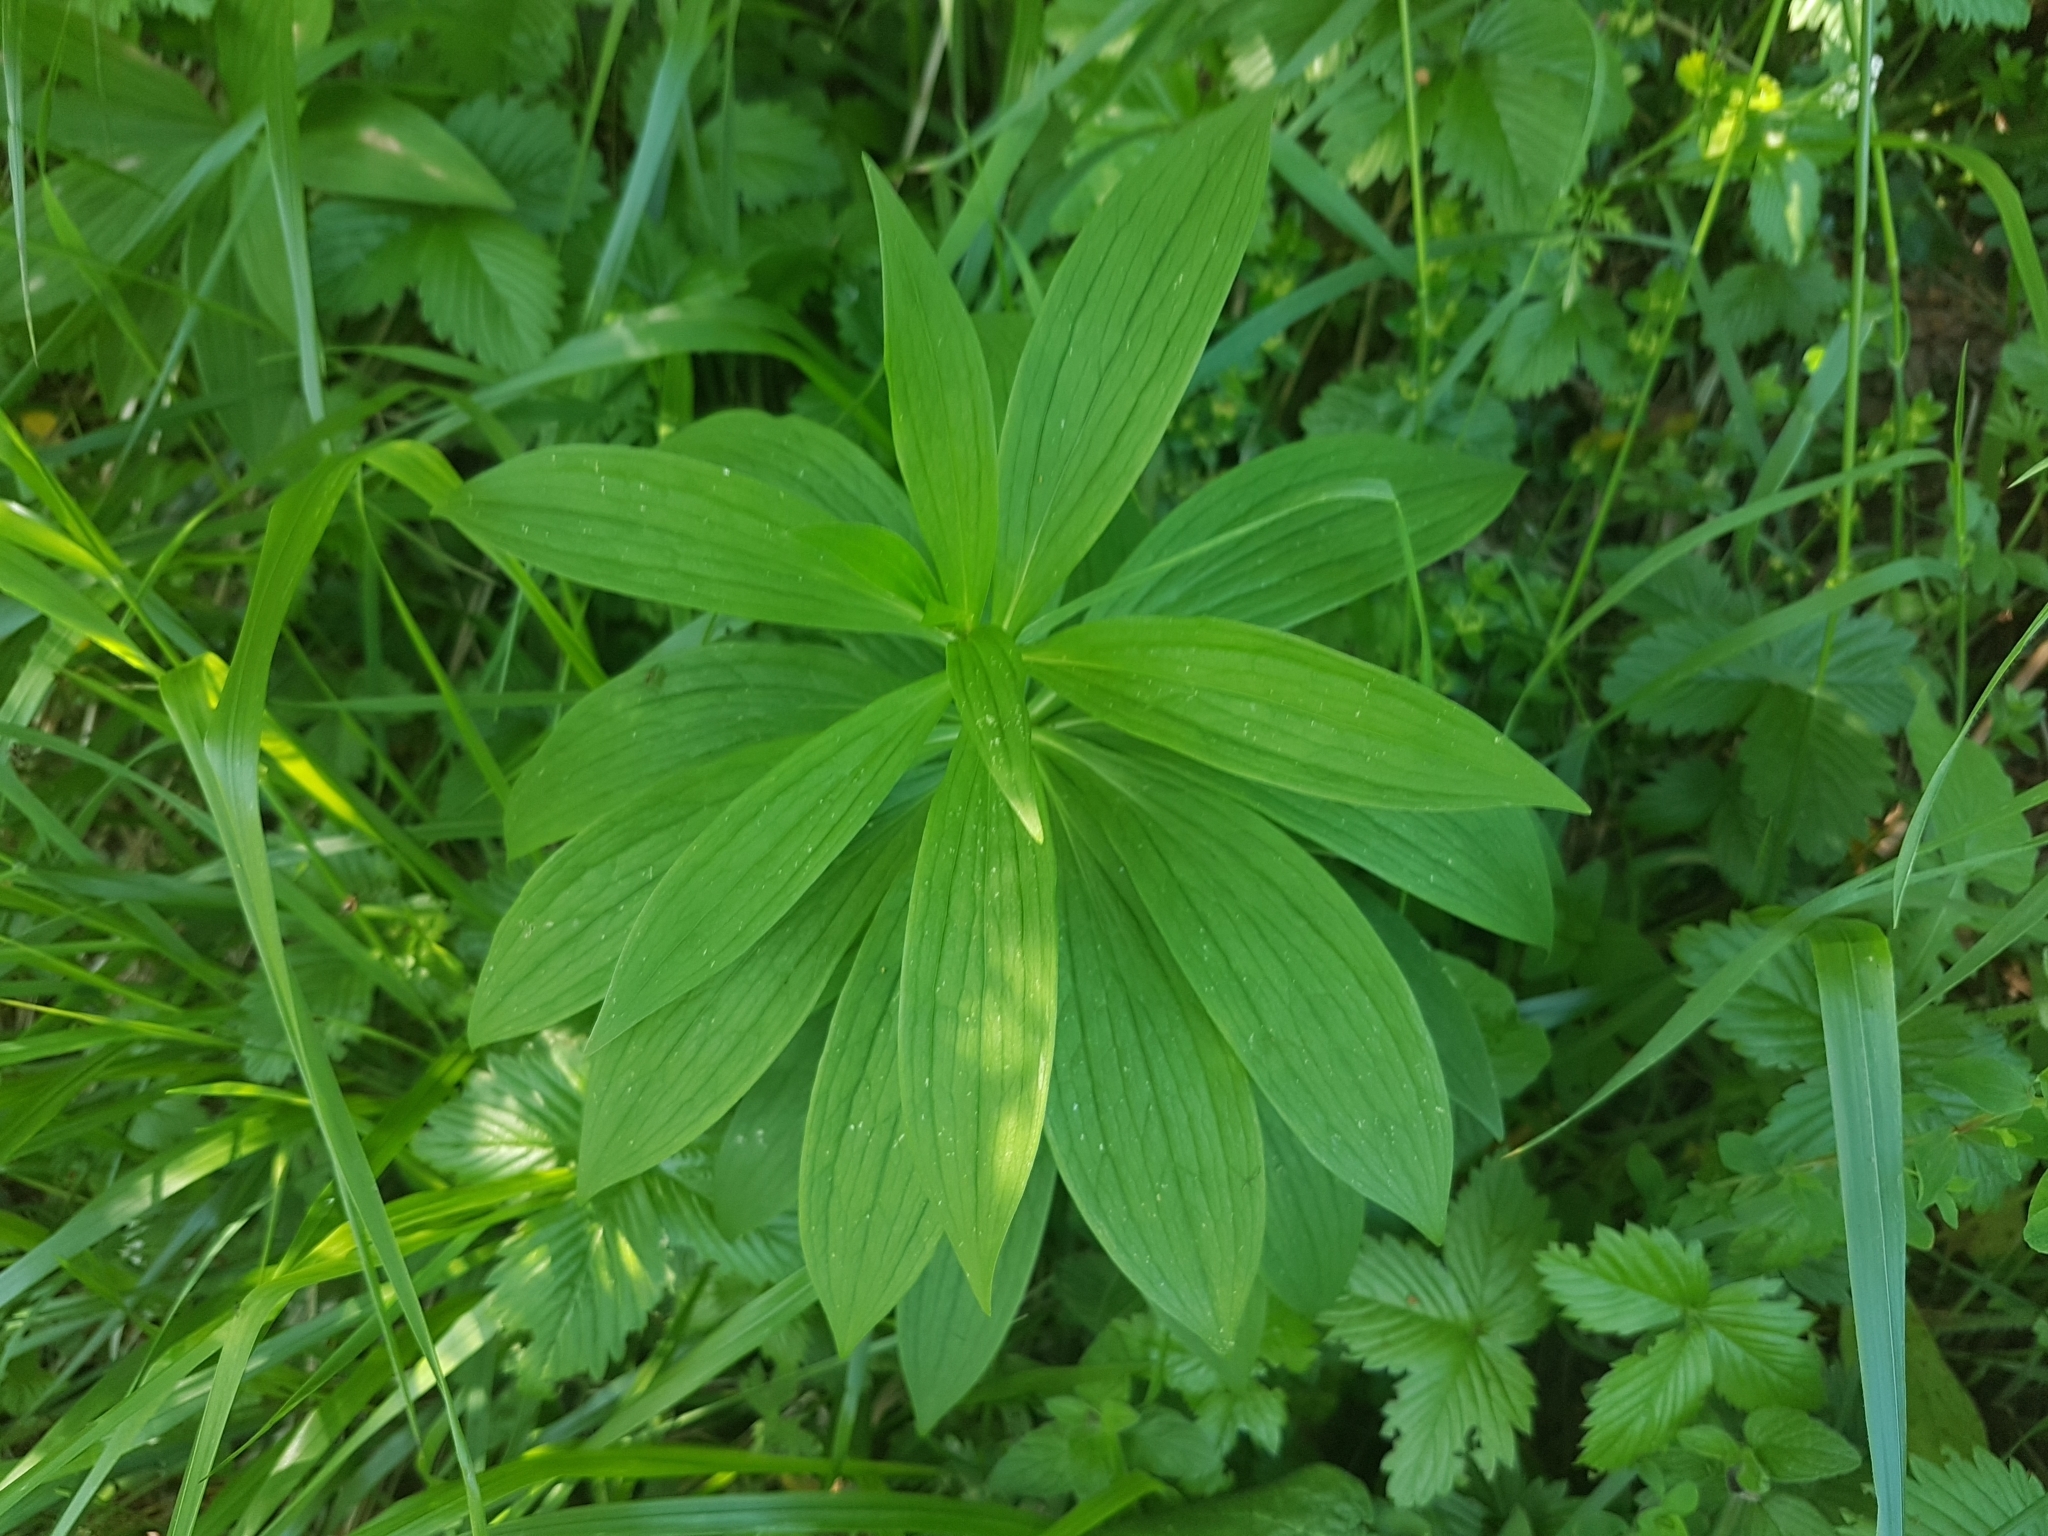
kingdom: Plantae
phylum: Tracheophyta
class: Liliopsida
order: Liliales
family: Liliaceae
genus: Lilium
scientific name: Lilium martagon
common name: Martagon lily
